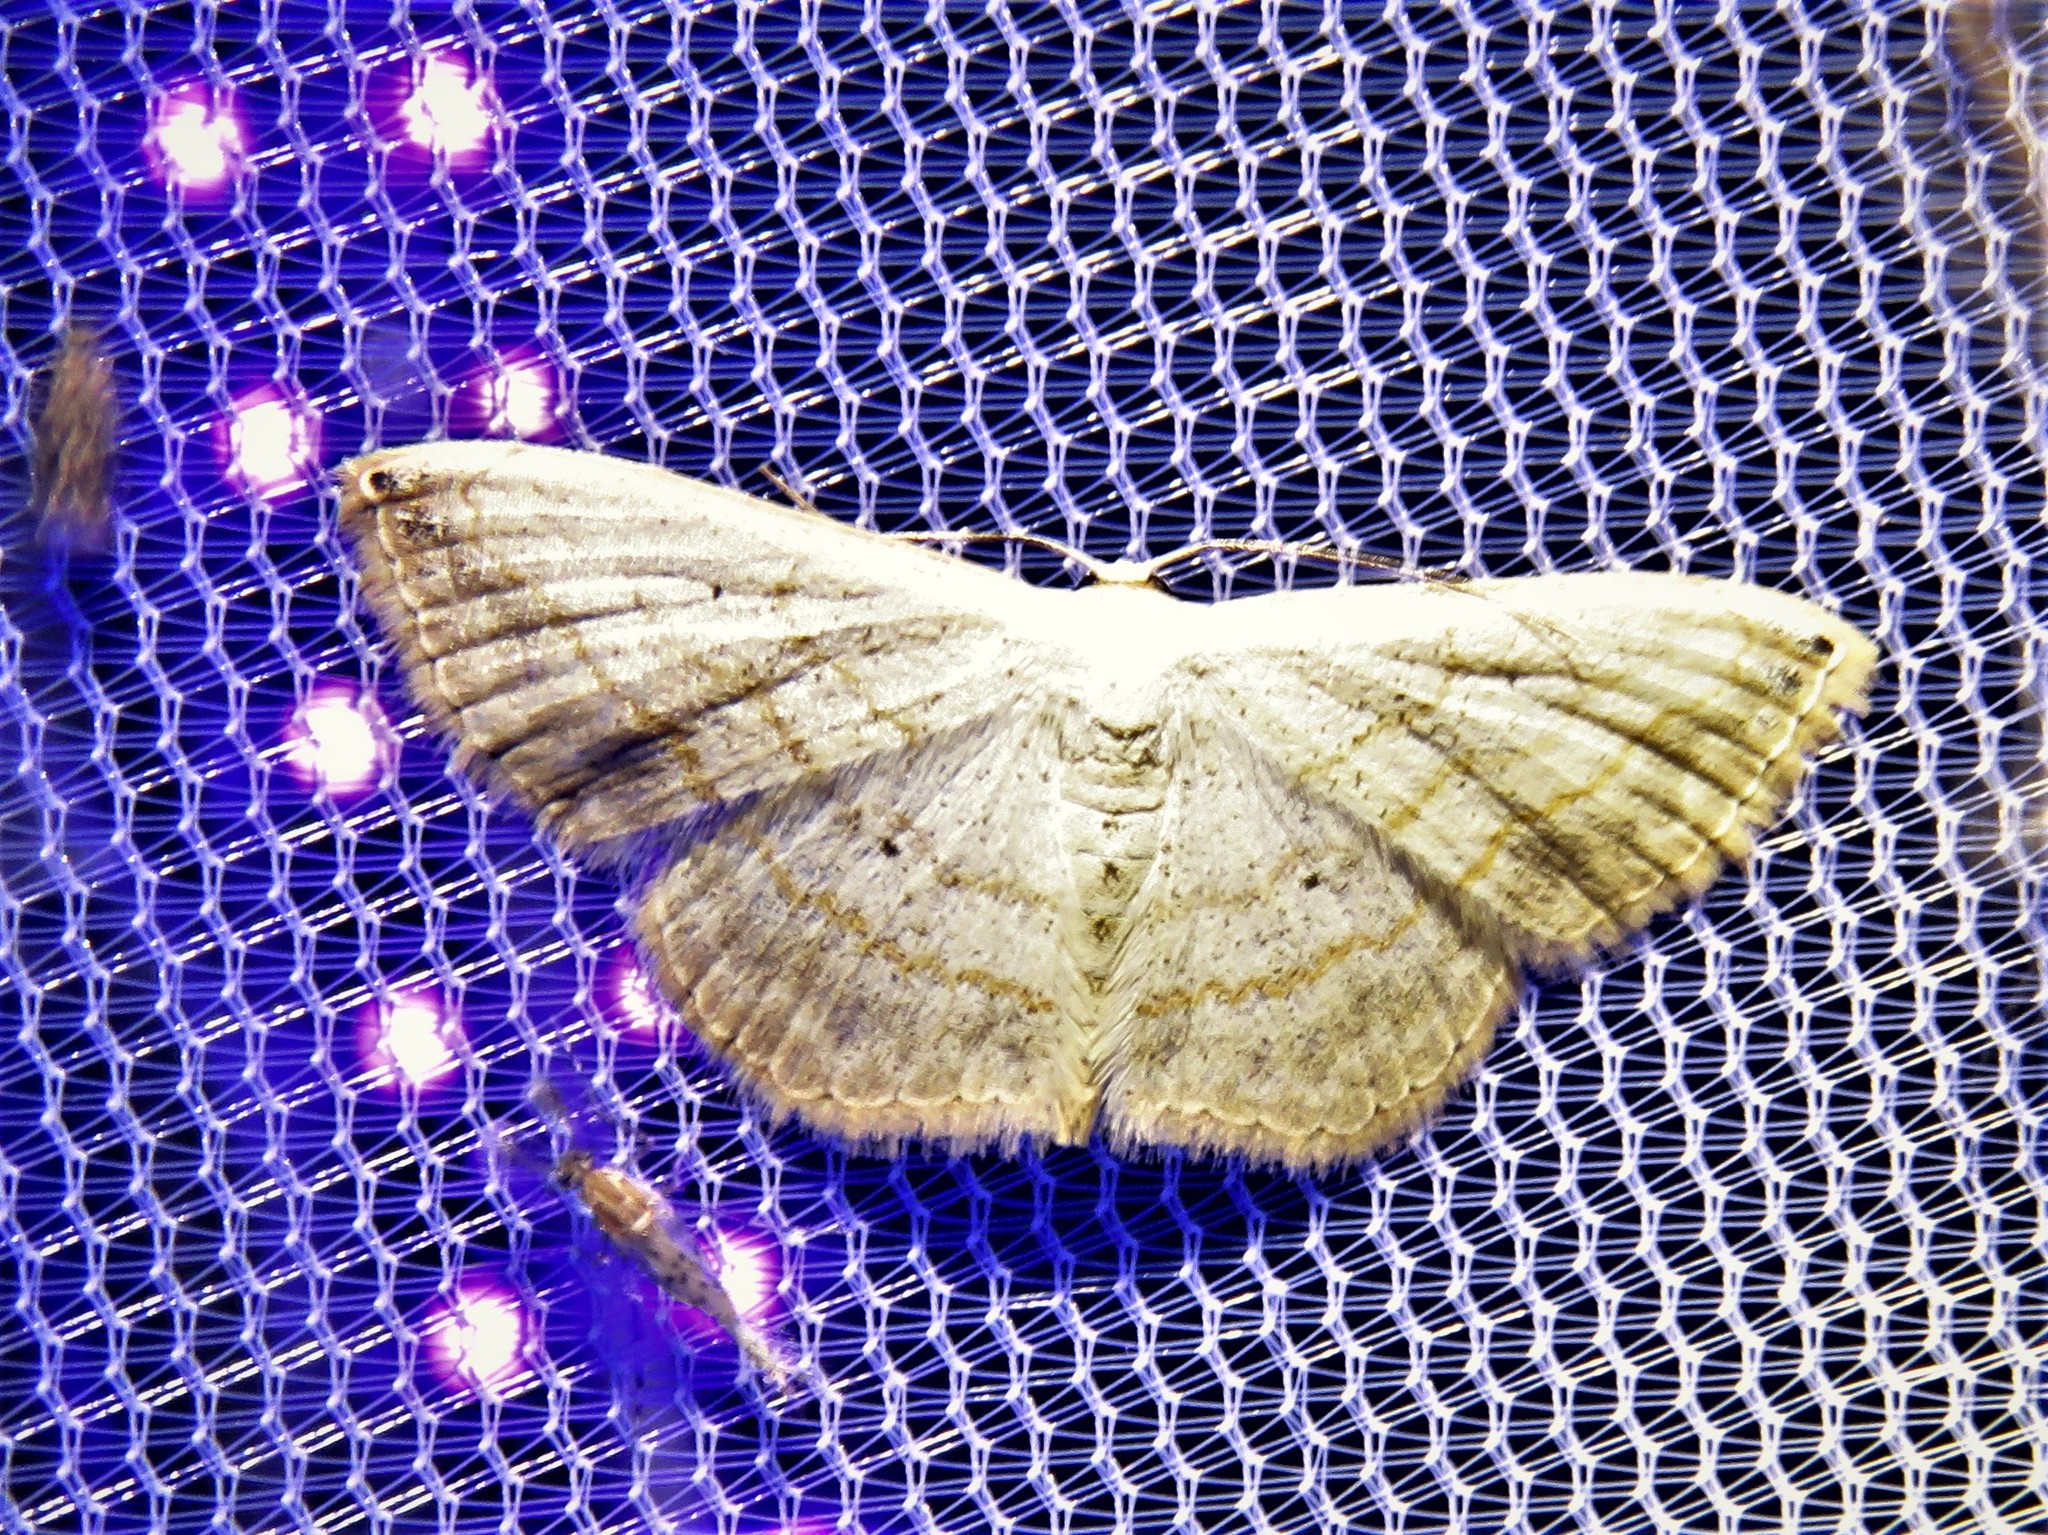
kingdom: Animalia
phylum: Arthropoda
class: Insecta
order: Lepidoptera
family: Geometridae
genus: Scopula
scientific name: Scopula umbilicata
